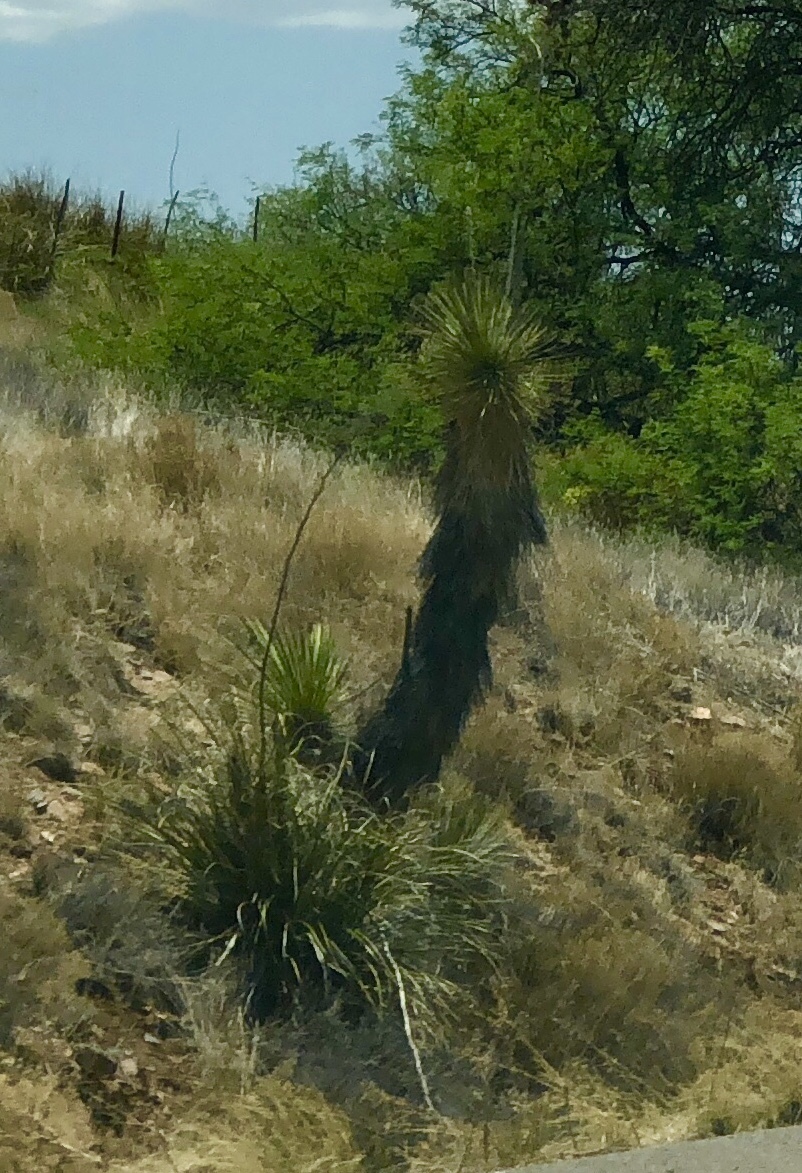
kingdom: Plantae
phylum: Tracheophyta
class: Liliopsida
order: Asparagales
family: Asparagaceae
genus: Yucca
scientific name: Yucca elata
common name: Palmella
